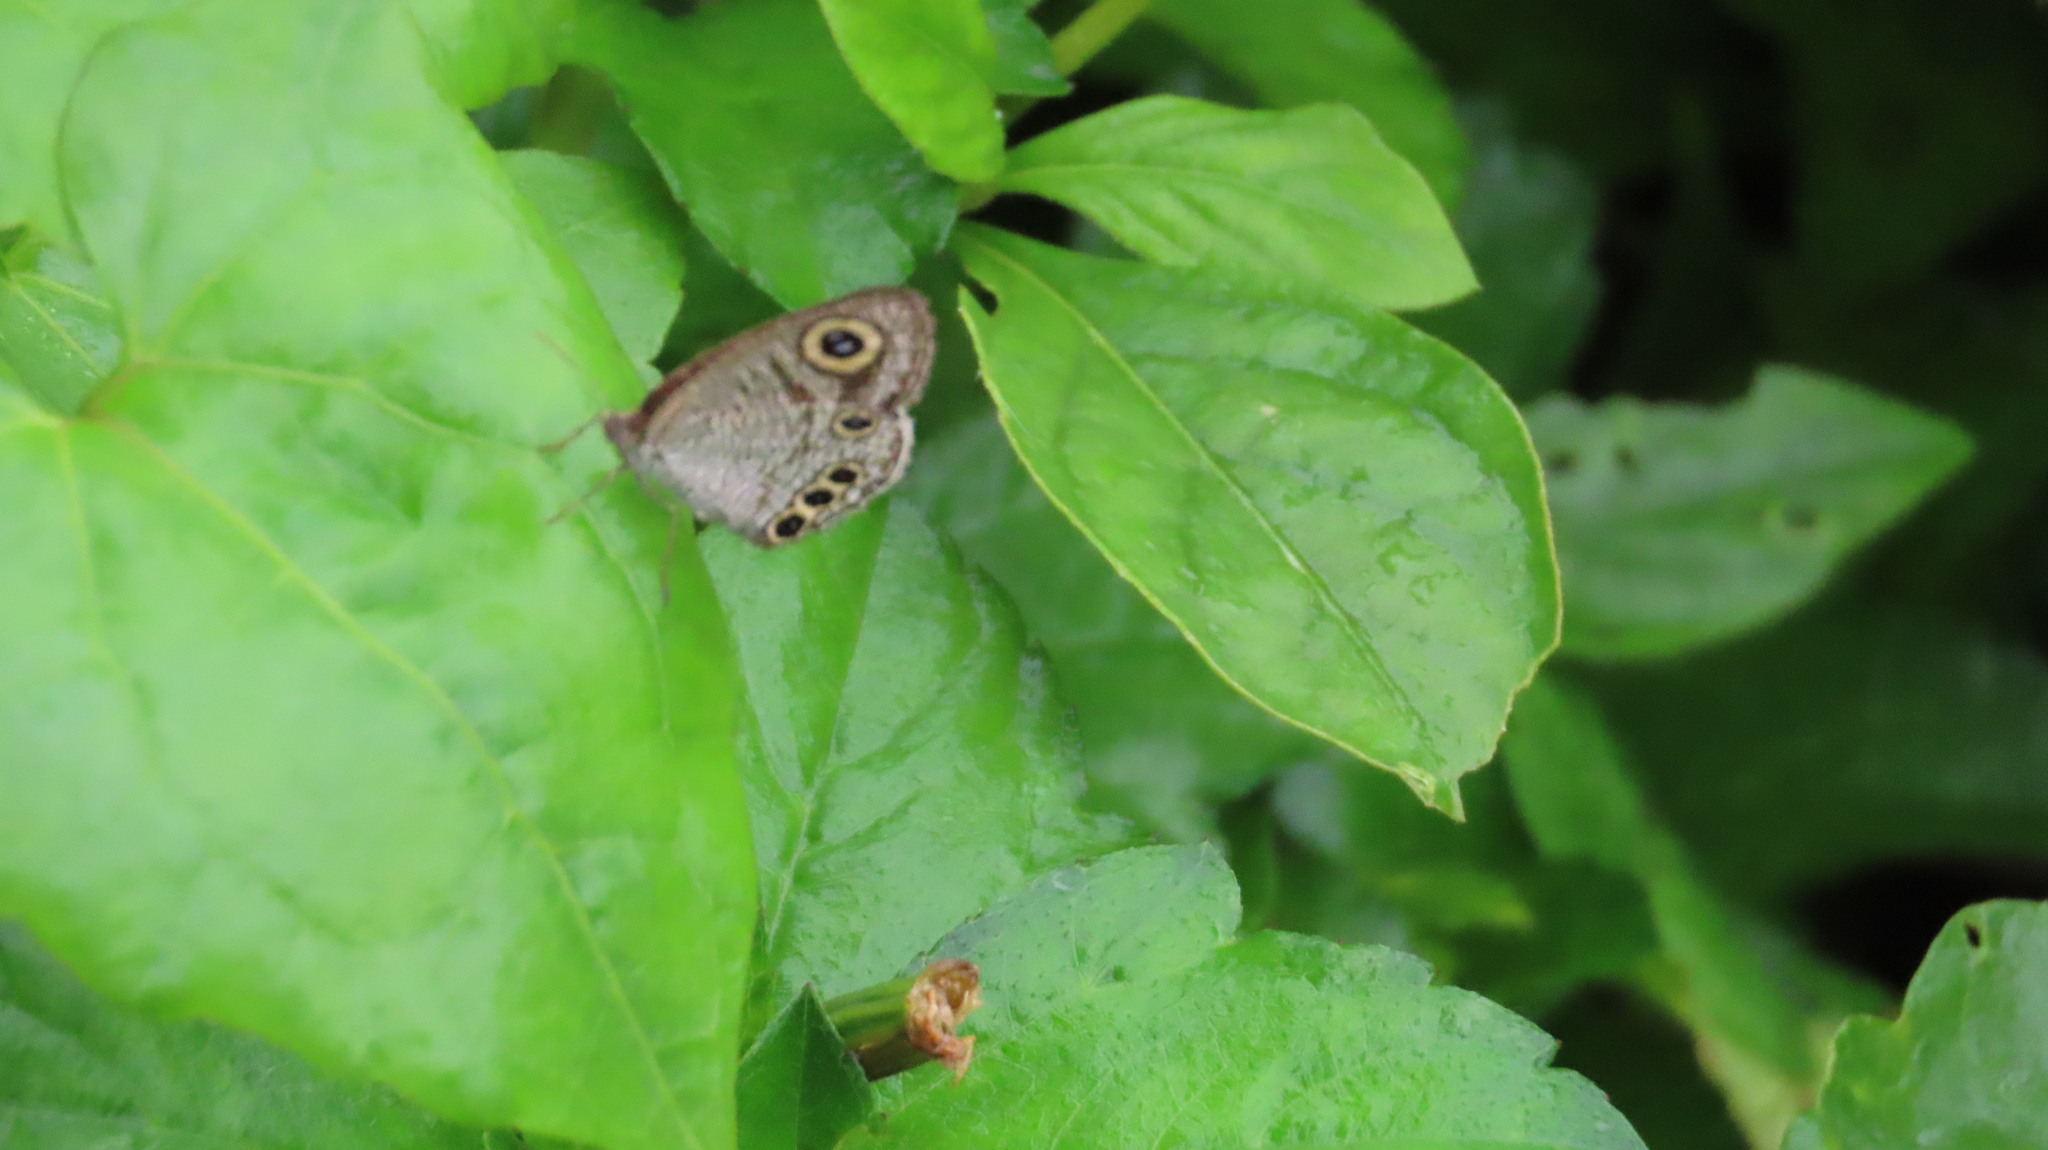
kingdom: Animalia
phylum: Arthropoda
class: Insecta
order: Lepidoptera
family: Nymphalidae
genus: Ypthima
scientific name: Ypthima huebneri
